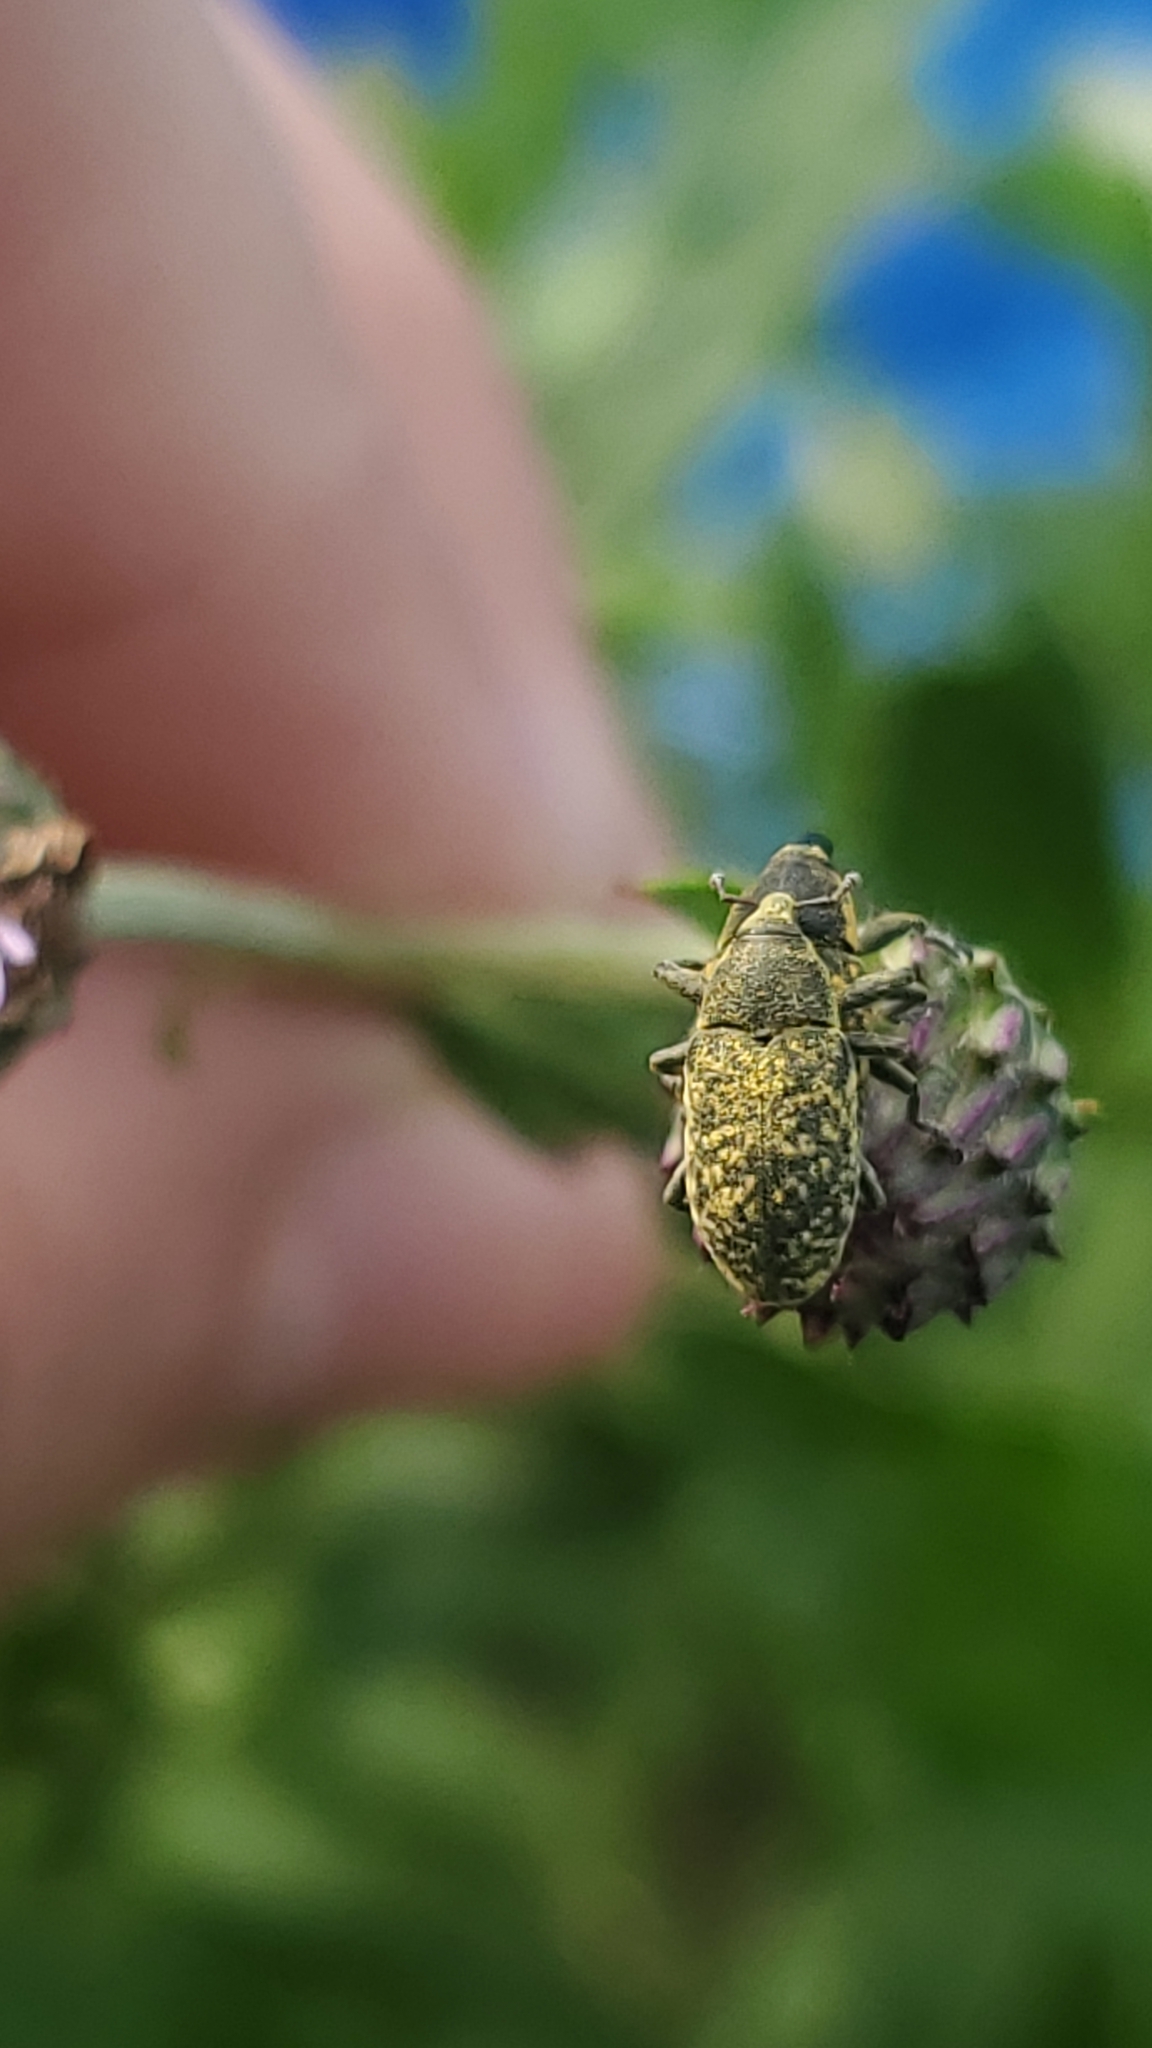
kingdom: Animalia
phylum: Arthropoda
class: Insecta
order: Coleoptera
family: Curculionidae
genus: Larinus
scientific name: Larinus carlinae
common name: Weevil
